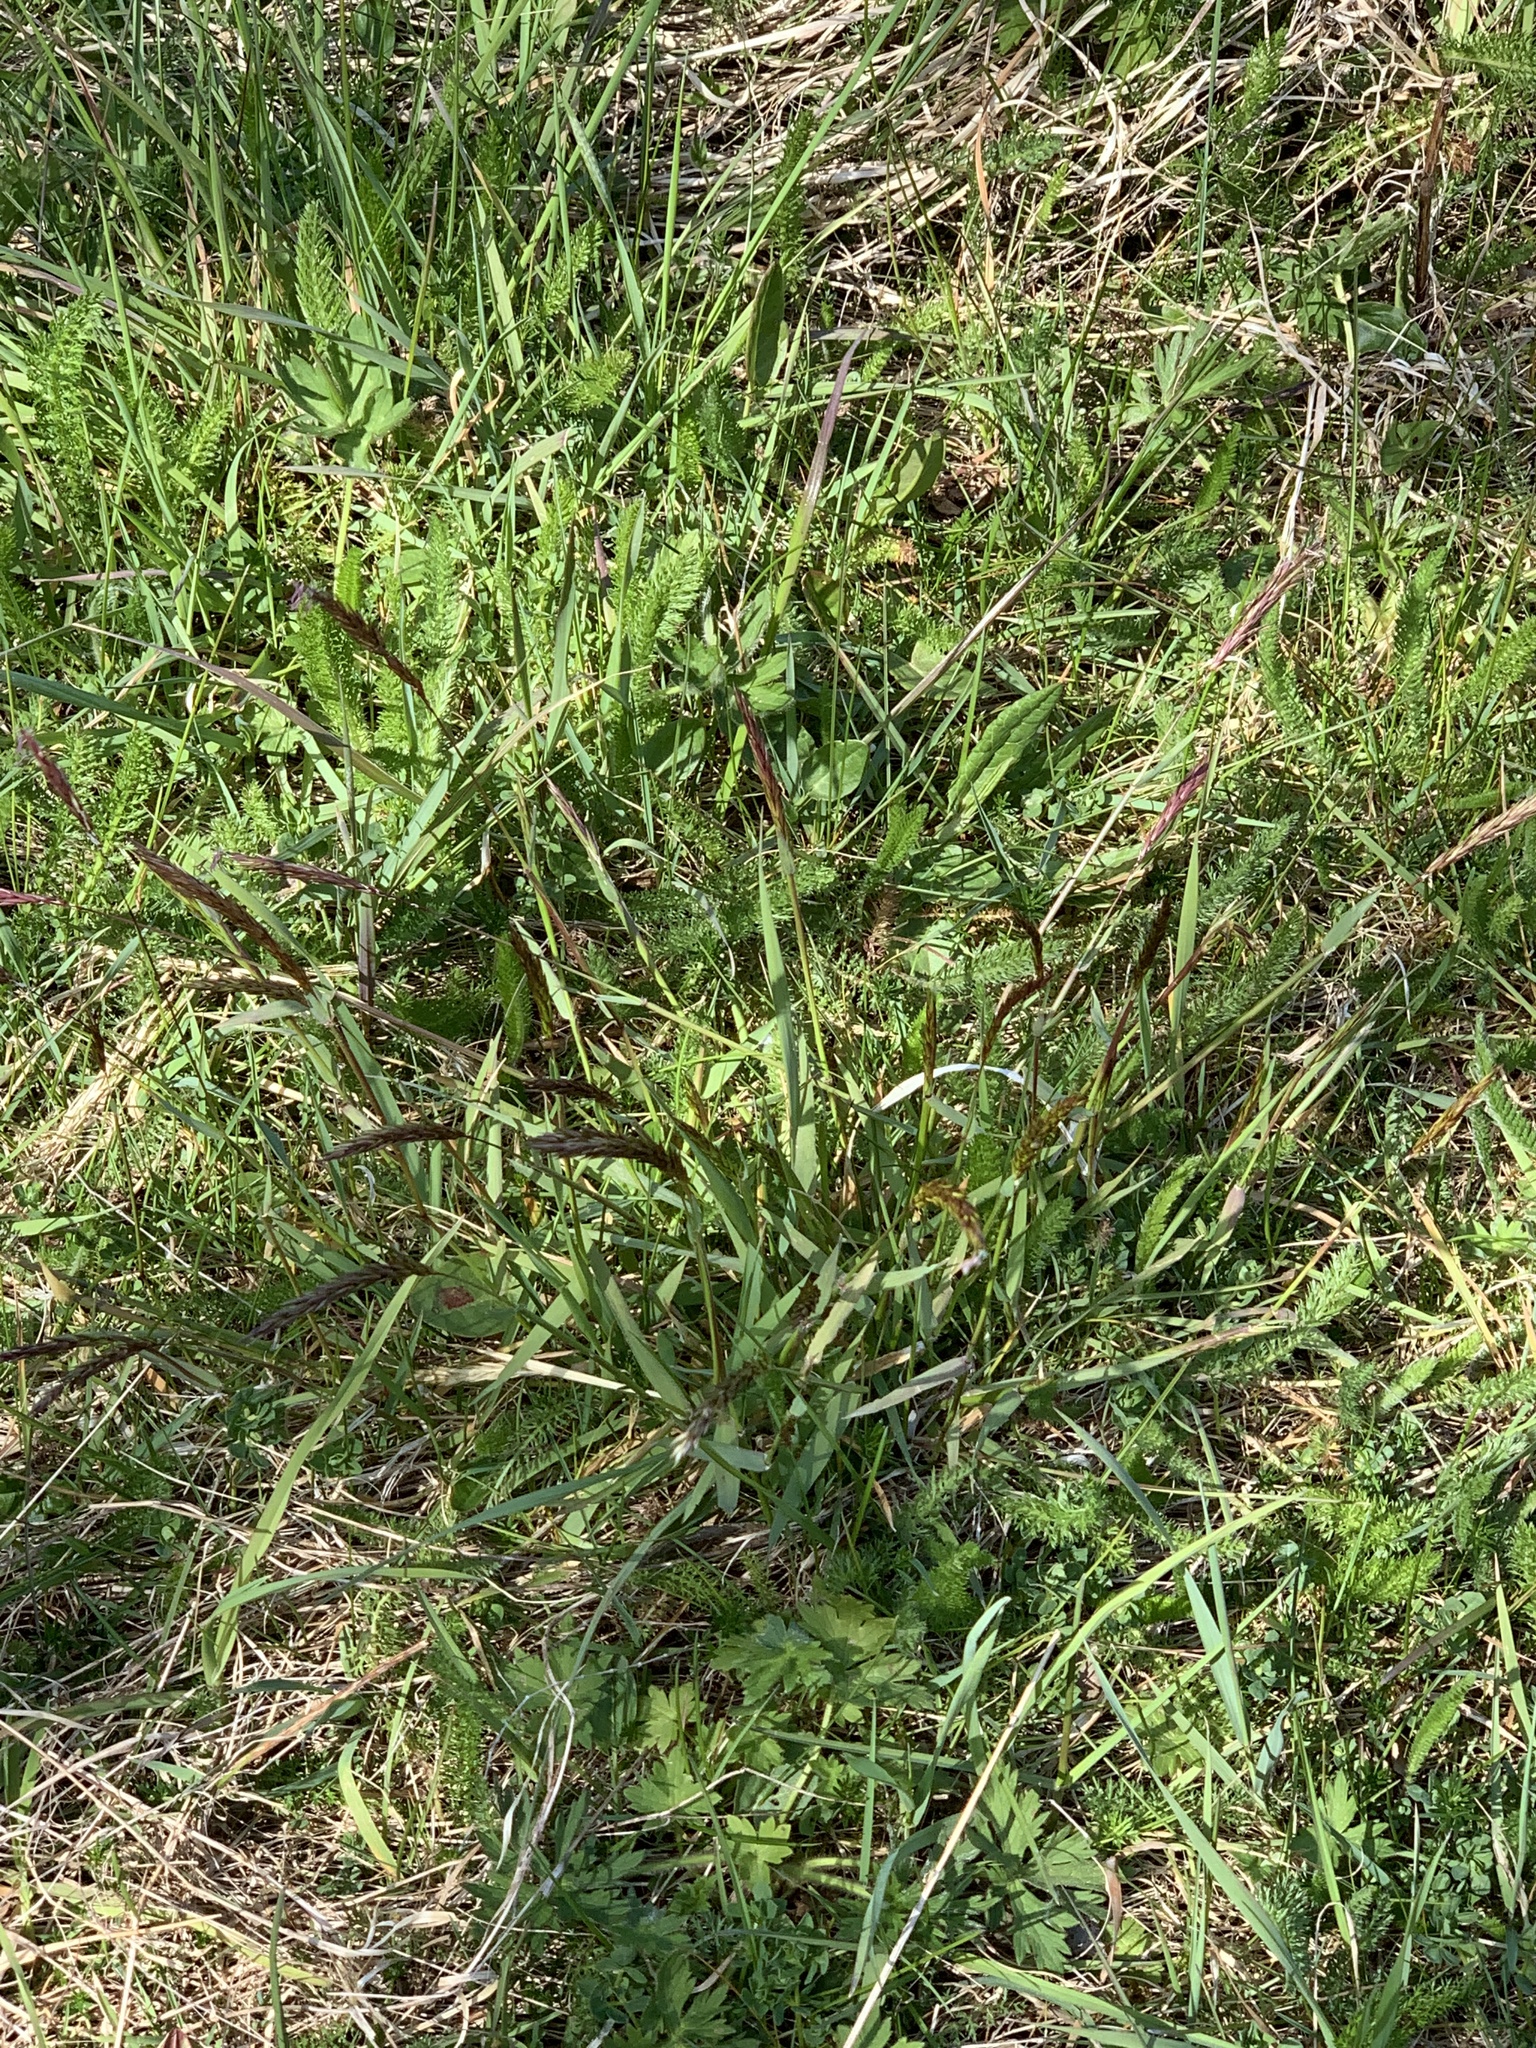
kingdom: Plantae
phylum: Tracheophyta
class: Liliopsida
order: Poales
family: Poaceae
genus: Anthoxanthum
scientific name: Anthoxanthum odoratum
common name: Sweet vernalgrass
